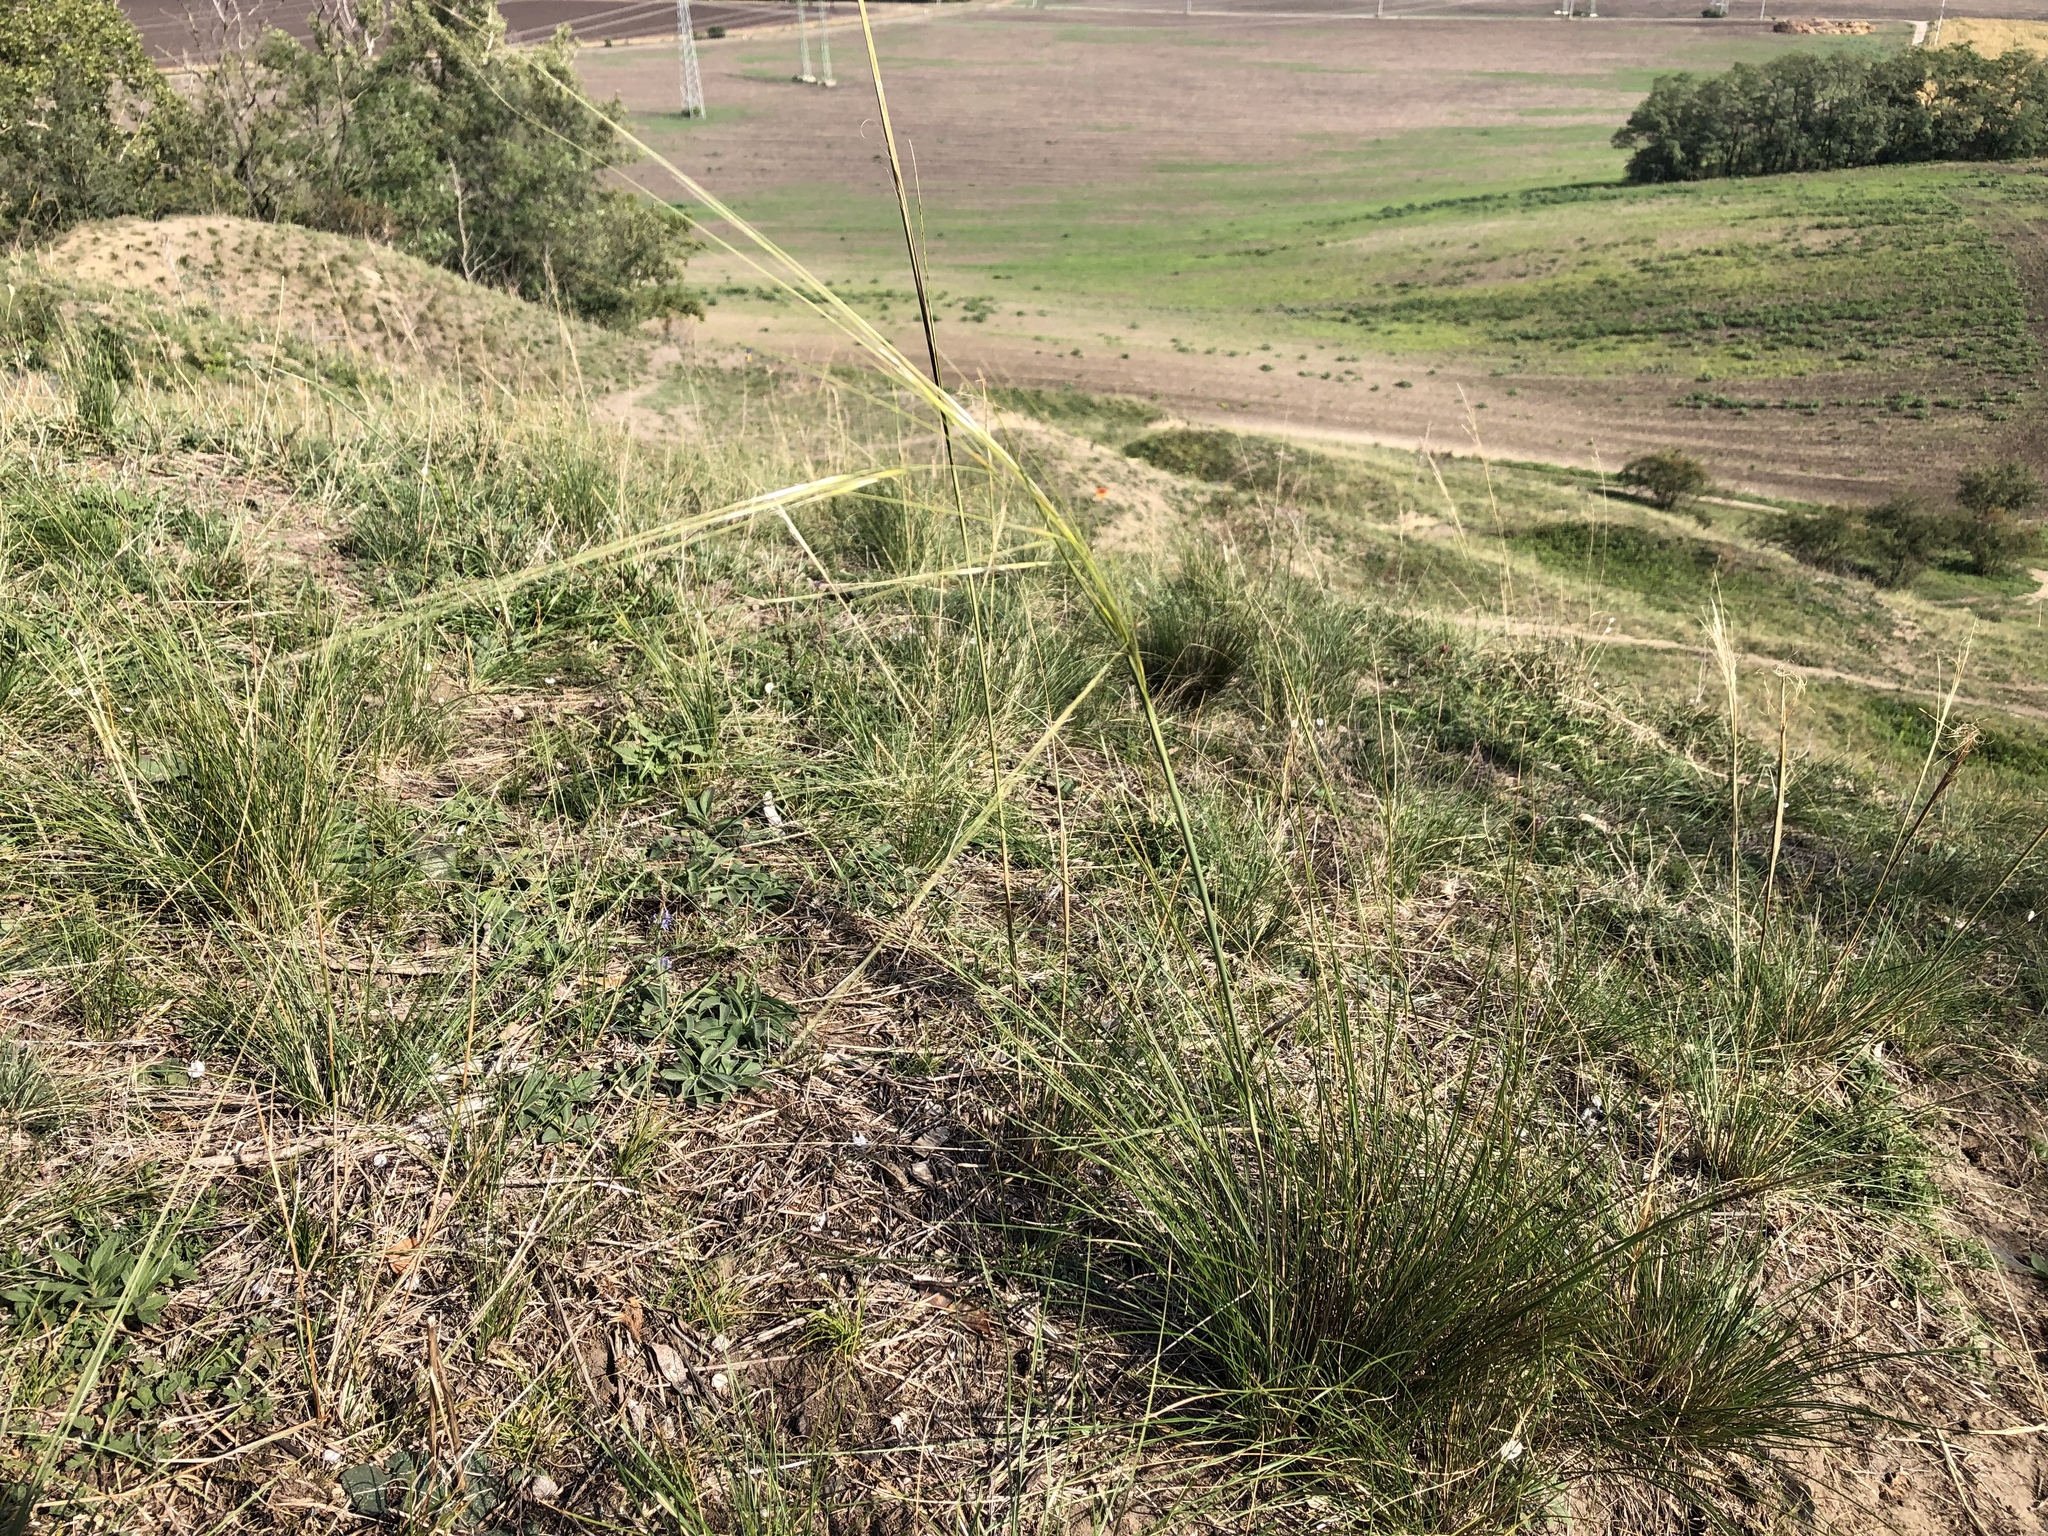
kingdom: Plantae
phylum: Tracheophyta
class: Liliopsida
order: Poales
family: Poaceae
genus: Stipa
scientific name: Stipa capillata
